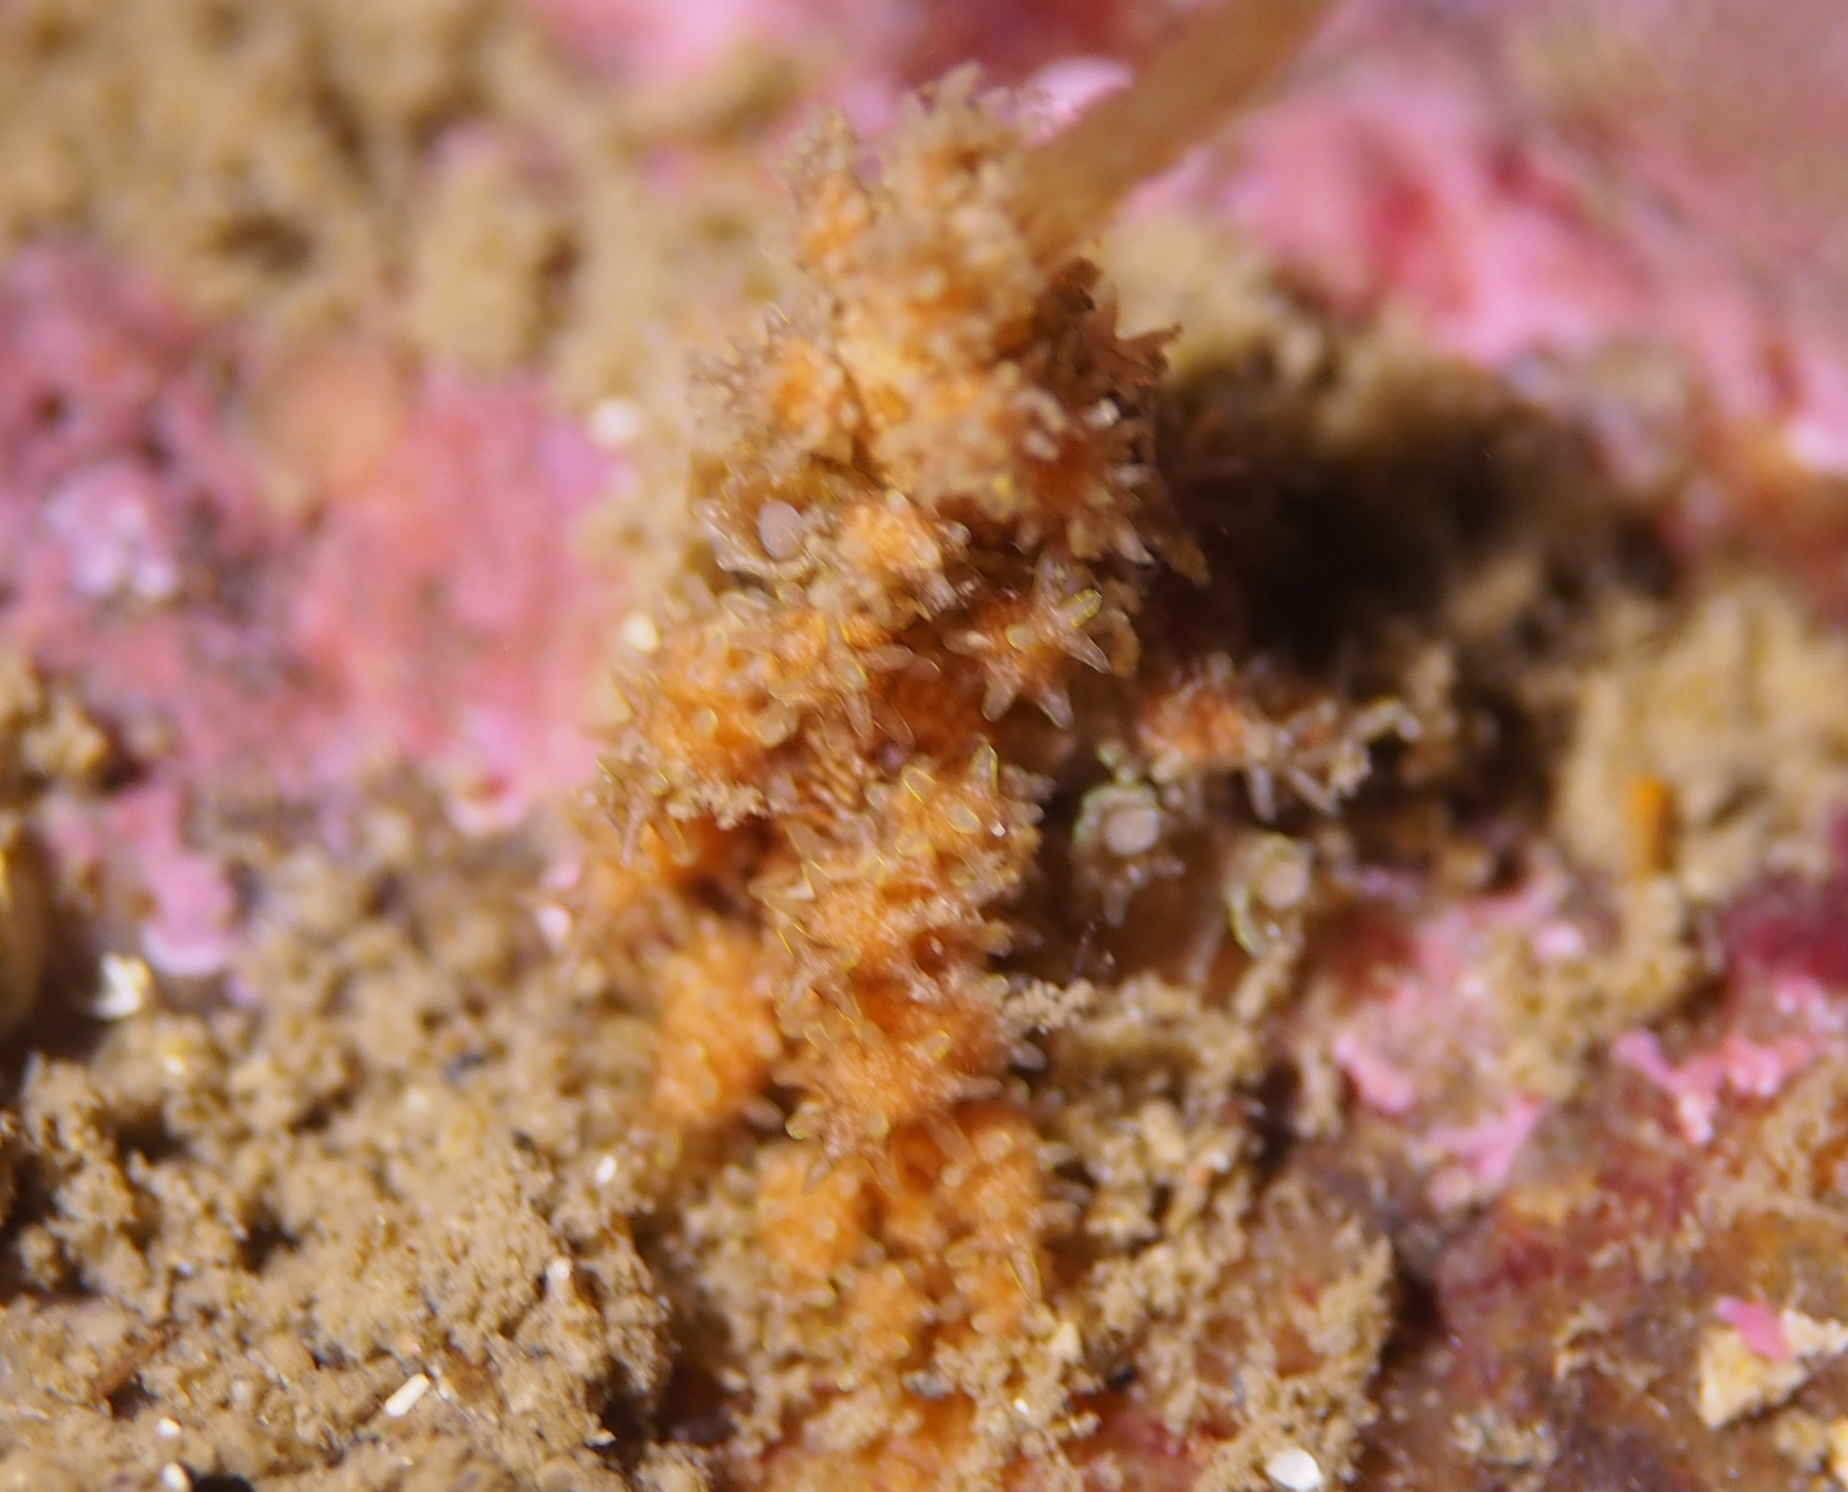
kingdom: Animalia
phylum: Mollusca
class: Gastropoda
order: Nudibranchia
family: Dotidae
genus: Doto
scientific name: Doto hystrix
